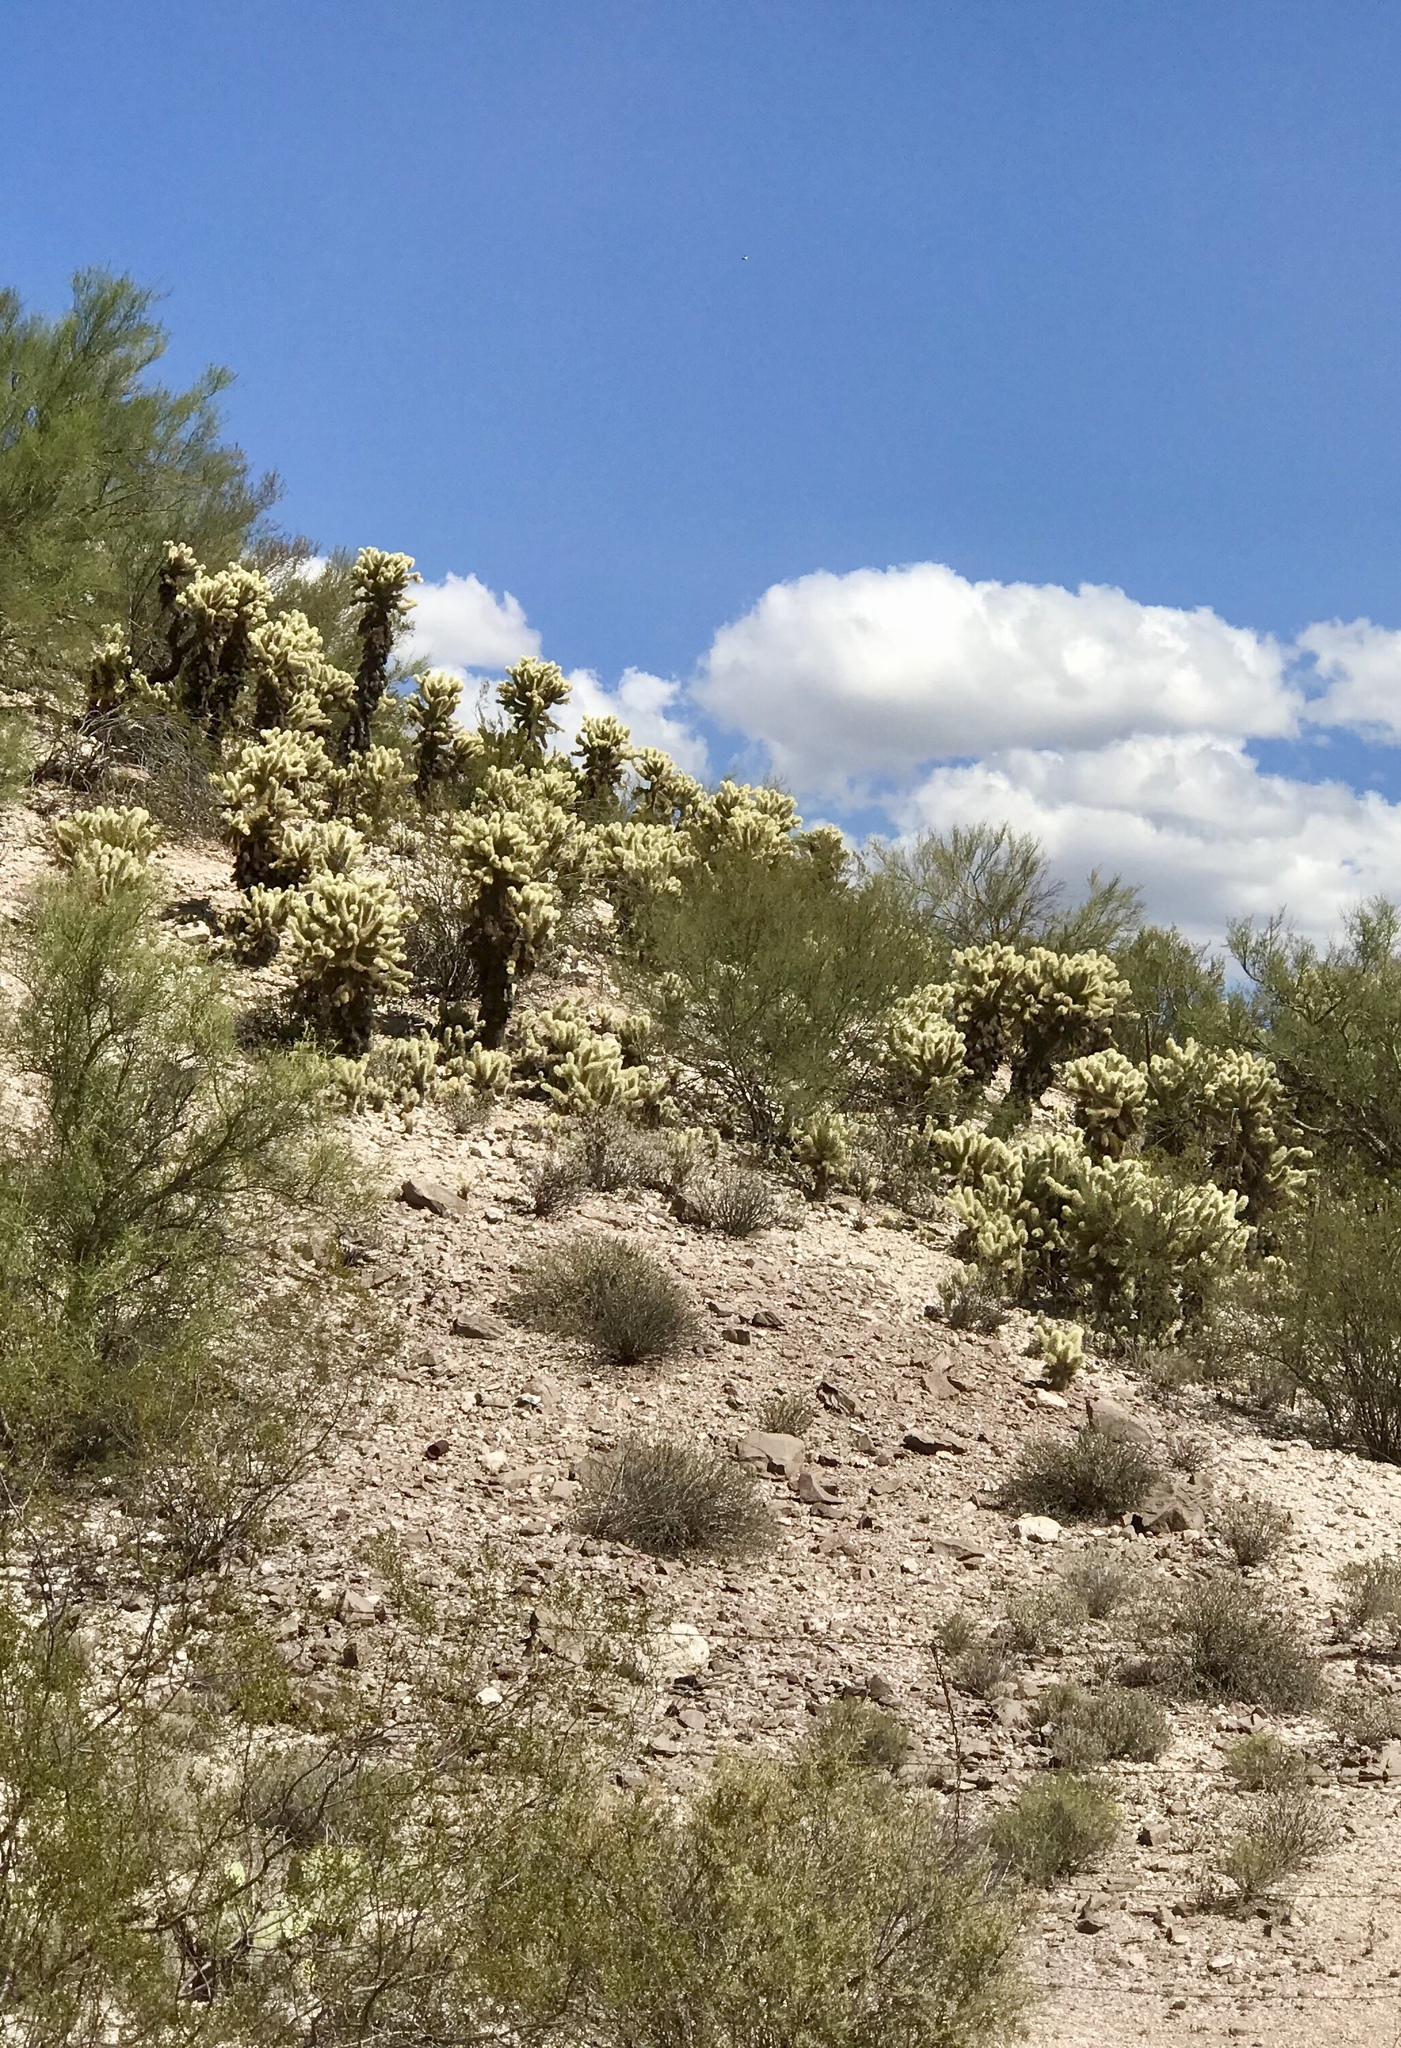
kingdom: Plantae
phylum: Tracheophyta
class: Magnoliopsida
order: Caryophyllales
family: Cactaceae
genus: Cylindropuntia
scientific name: Cylindropuntia fosbergii
